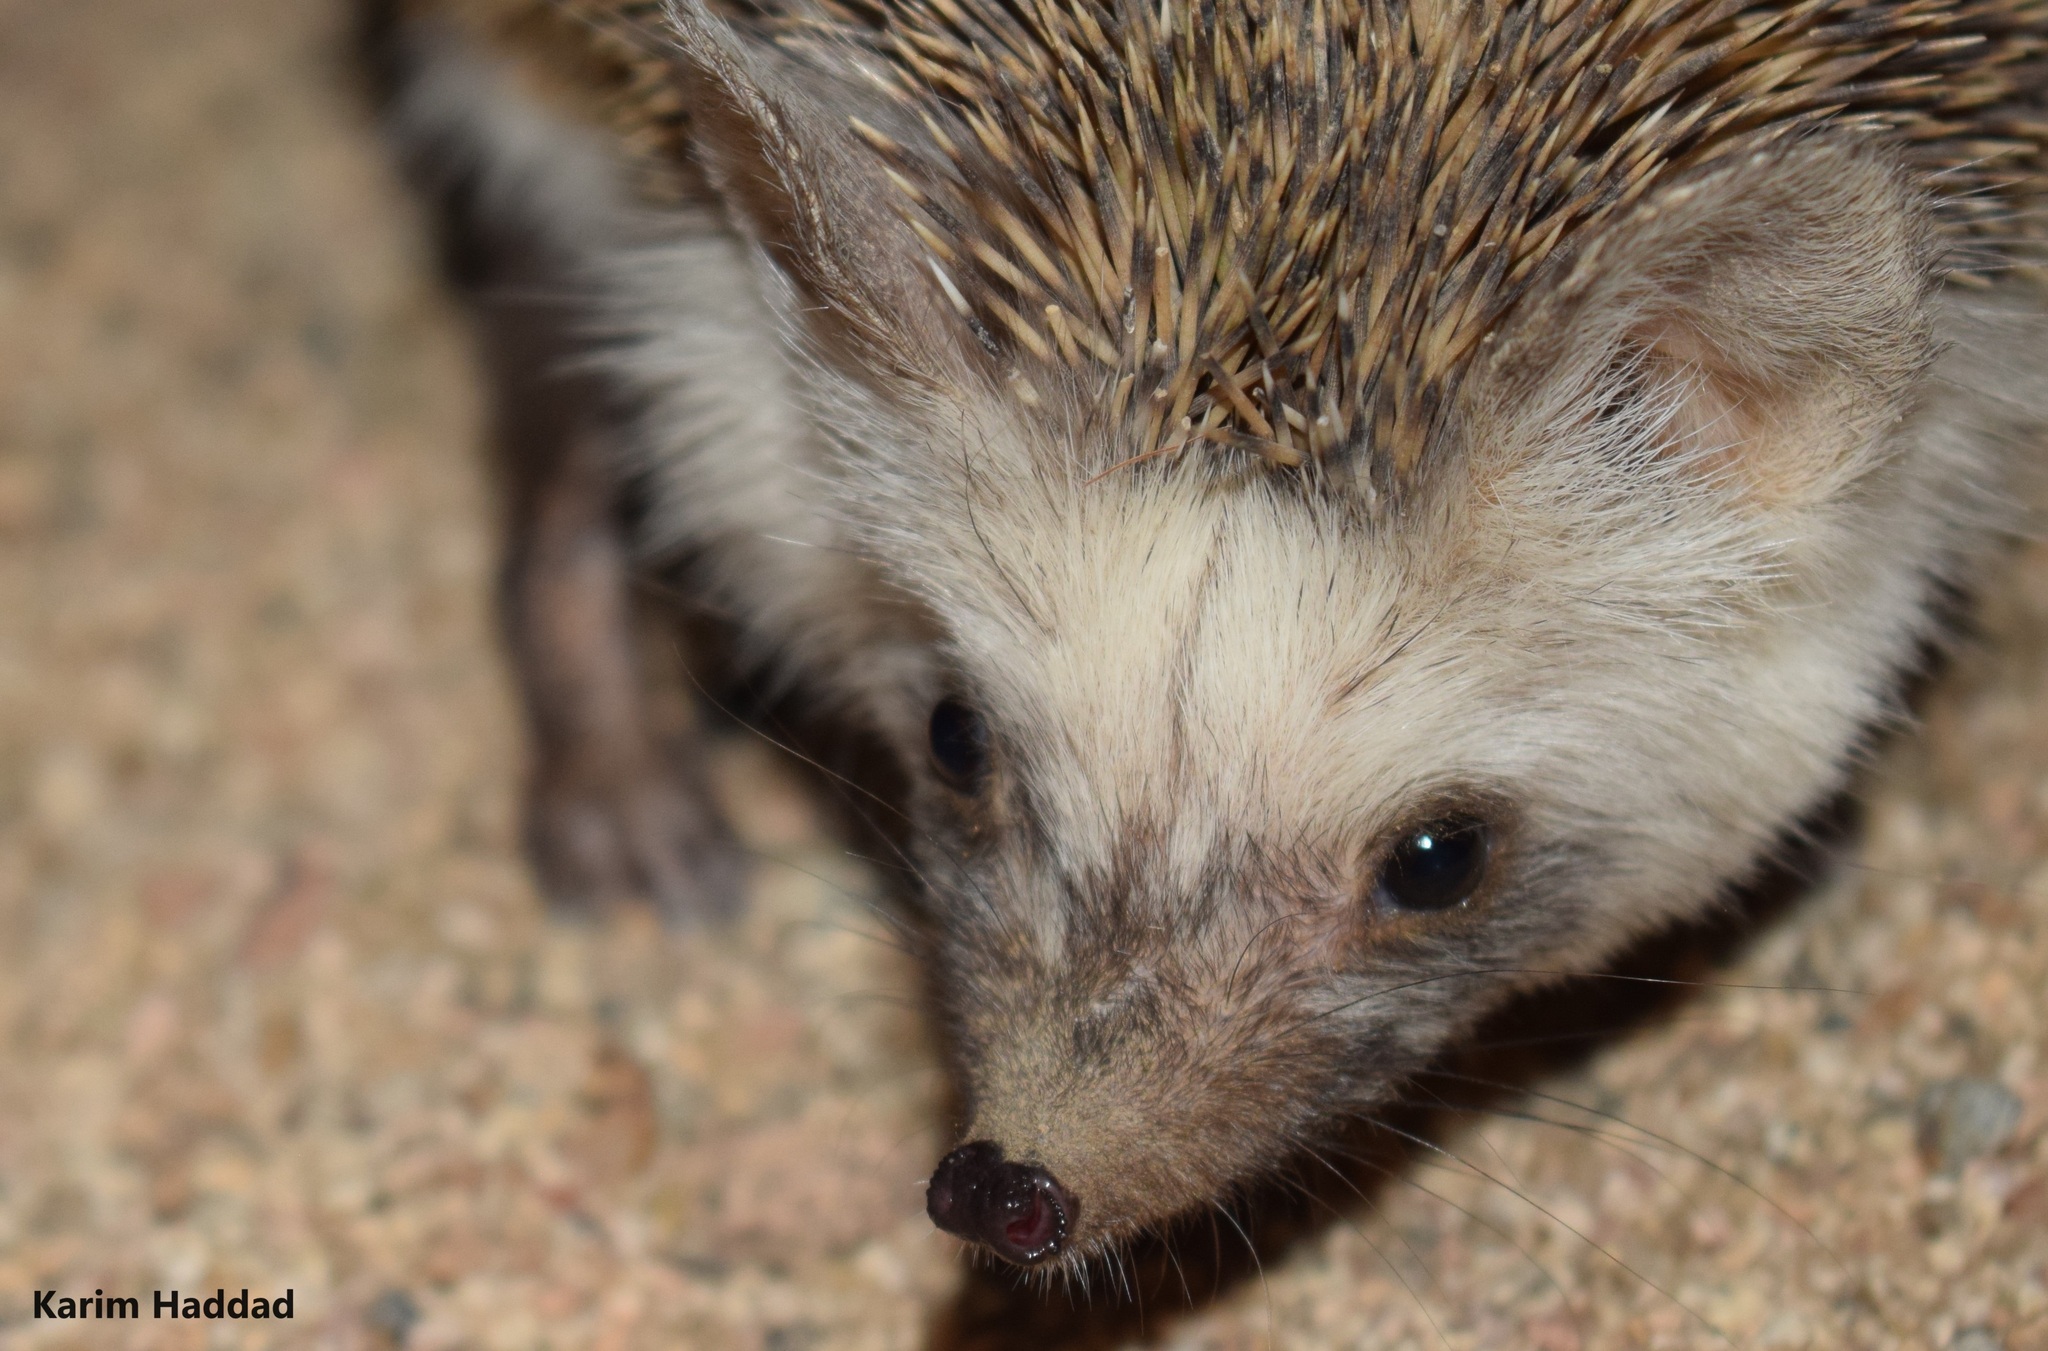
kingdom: Animalia
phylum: Chordata
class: Mammalia
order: Erinaceomorpha
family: Erinaceidae
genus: Paraechinus
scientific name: Paraechinus aethiopicus
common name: Desert hedgehog
